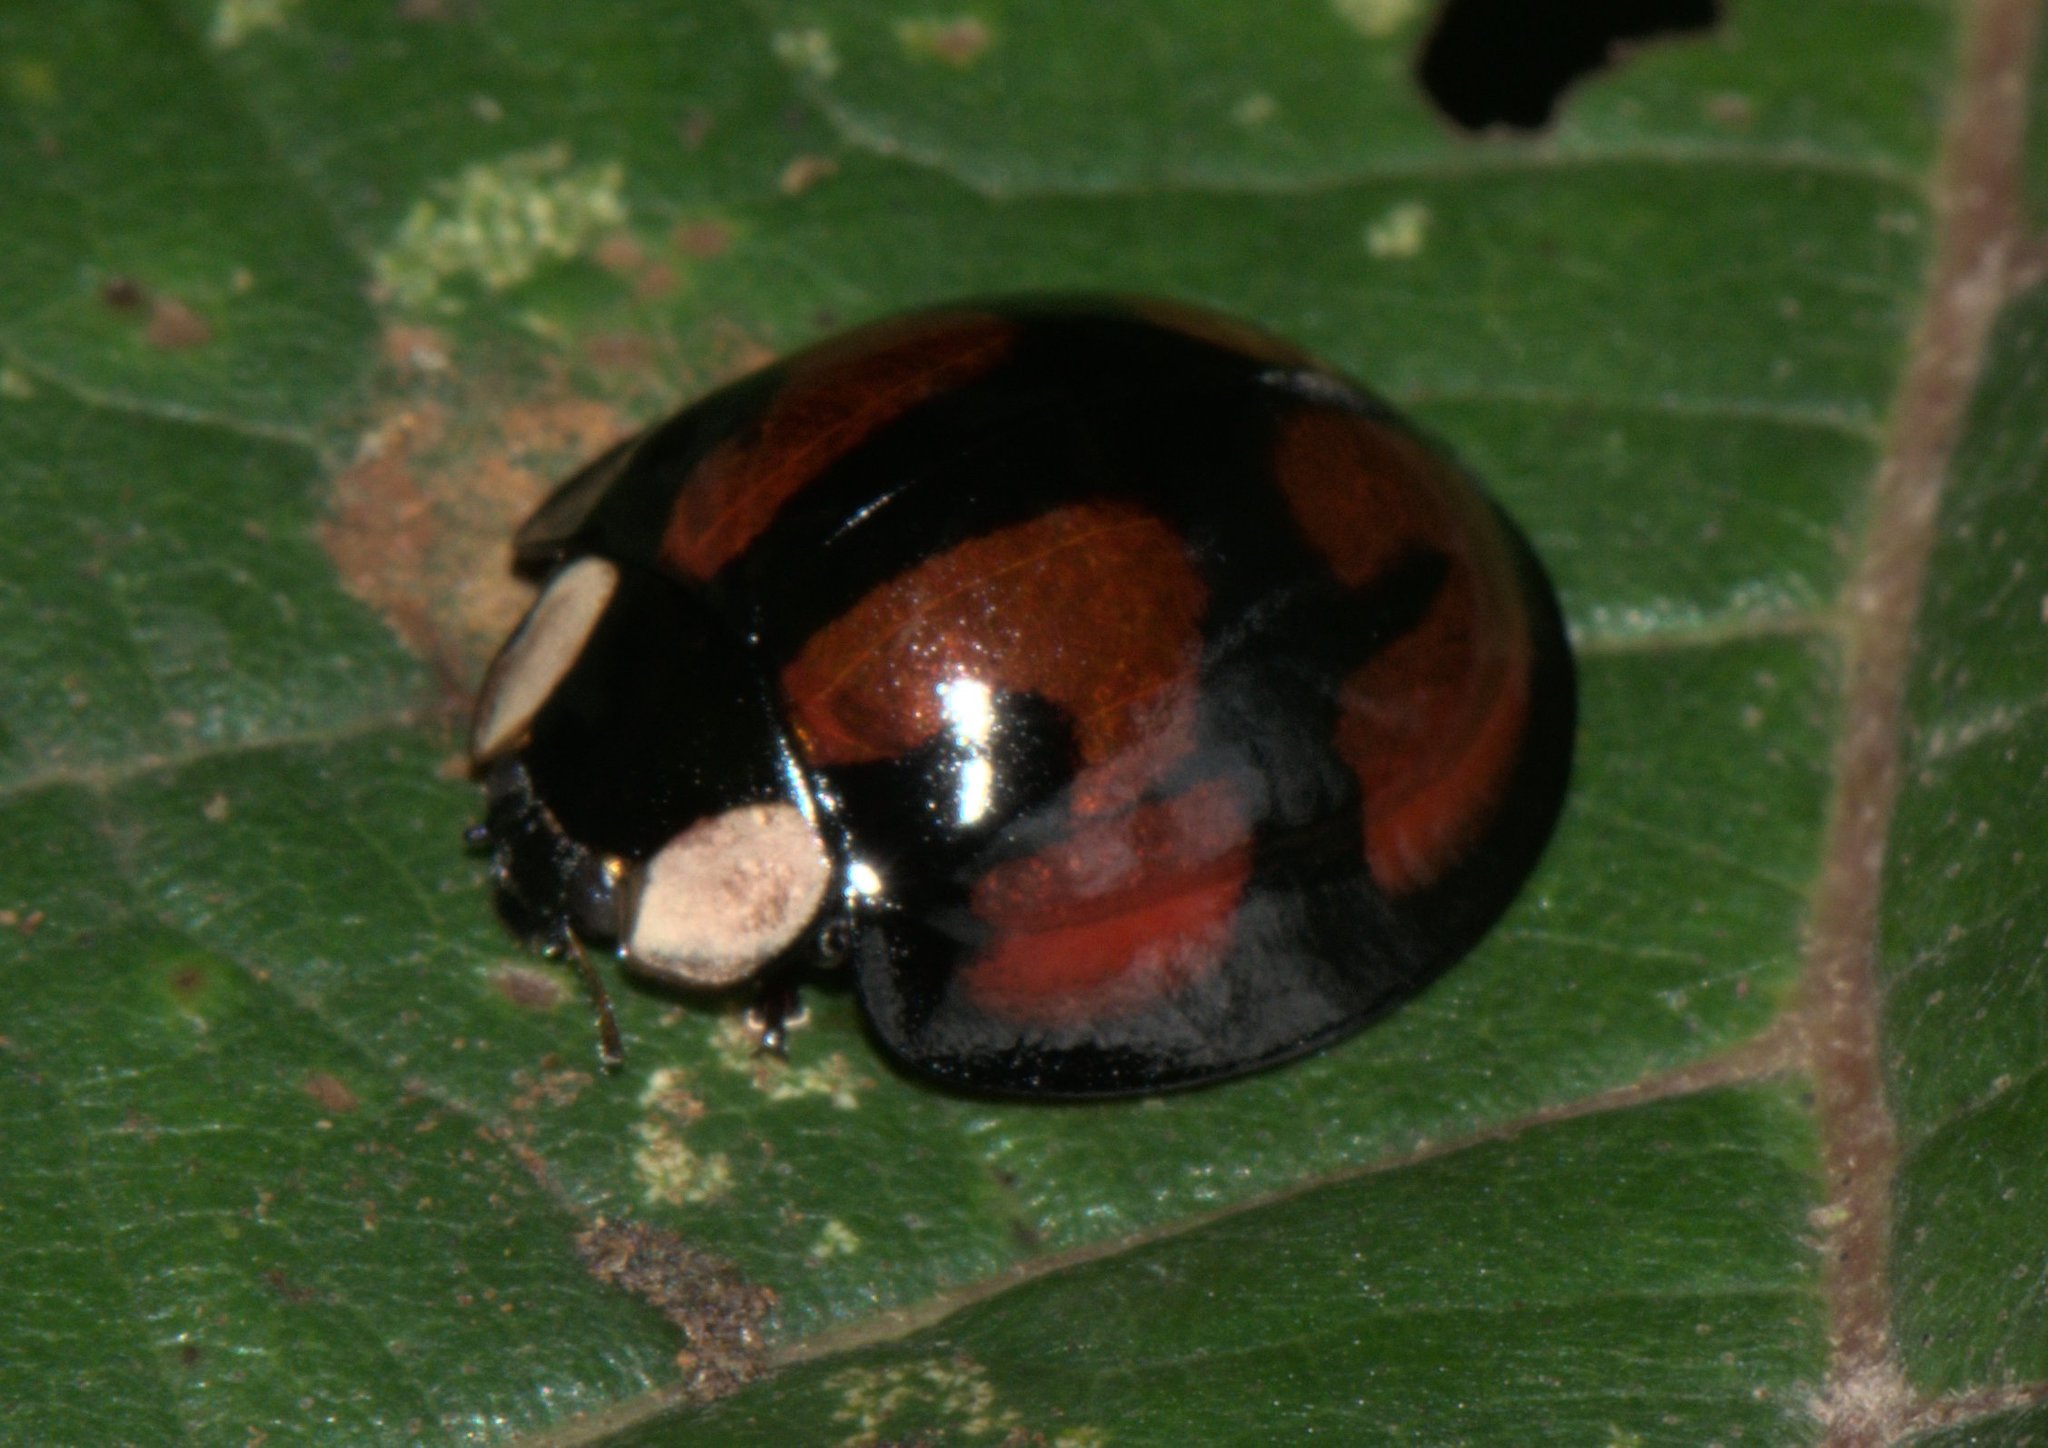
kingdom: Animalia
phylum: Arthropoda
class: Insecta
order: Coleoptera
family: Coccinellidae
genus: Aiolocaria
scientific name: Aiolocaria hexaspilota
